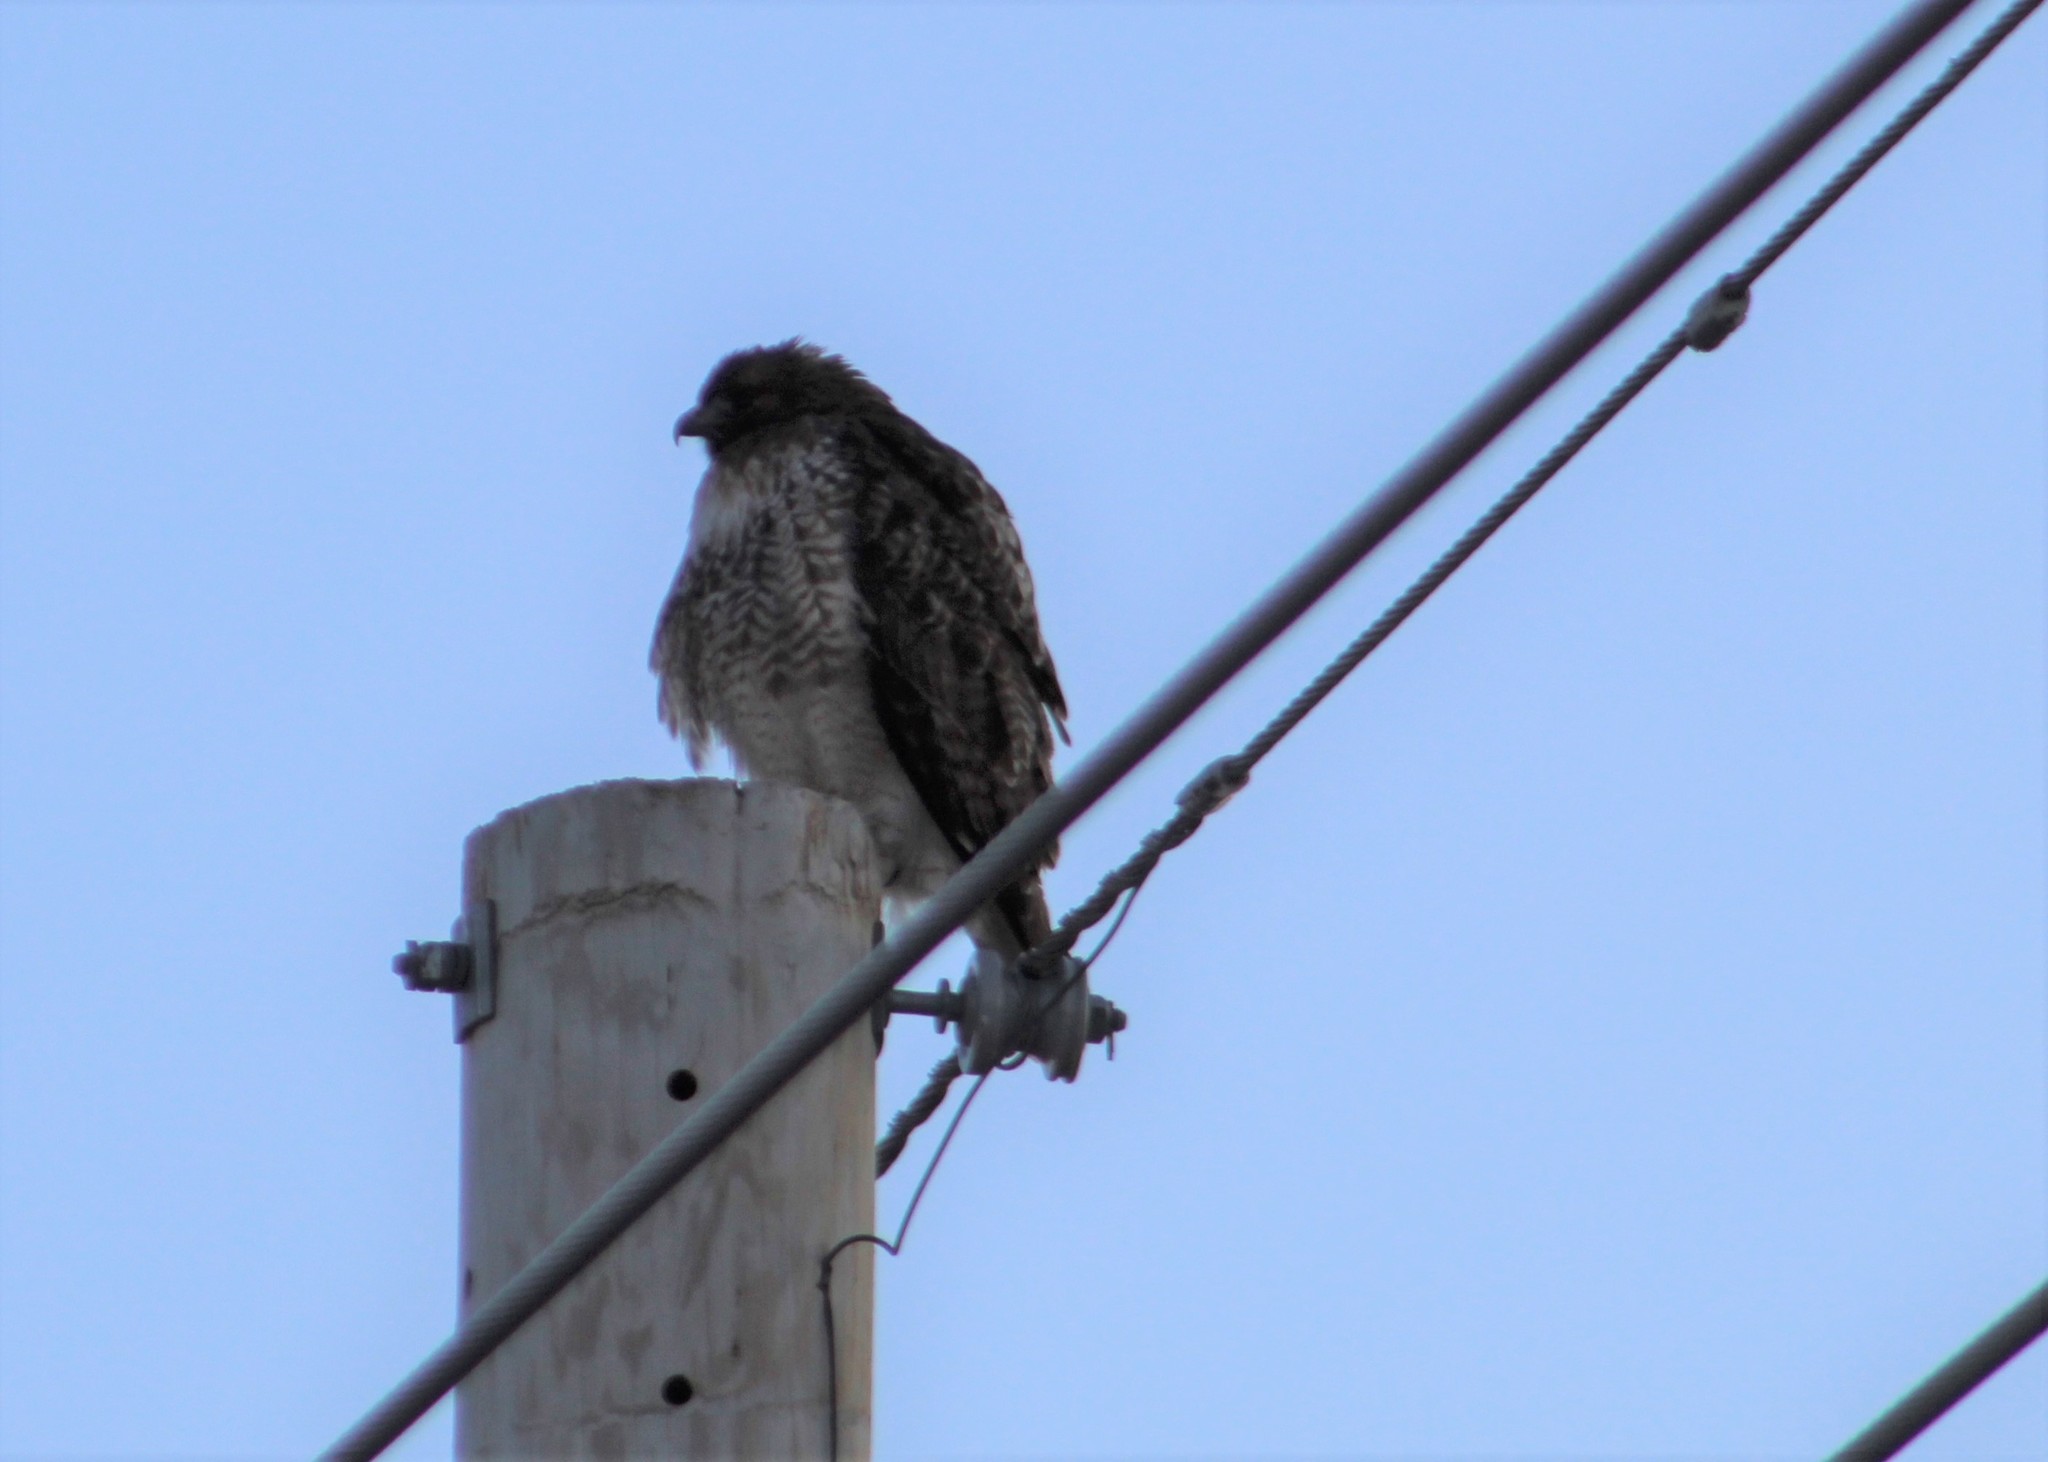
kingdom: Animalia
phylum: Chordata
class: Aves
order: Accipitriformes
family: Accipitridae
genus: Buteo
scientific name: Buteo jamaicensis
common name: Red-tailed hawk
